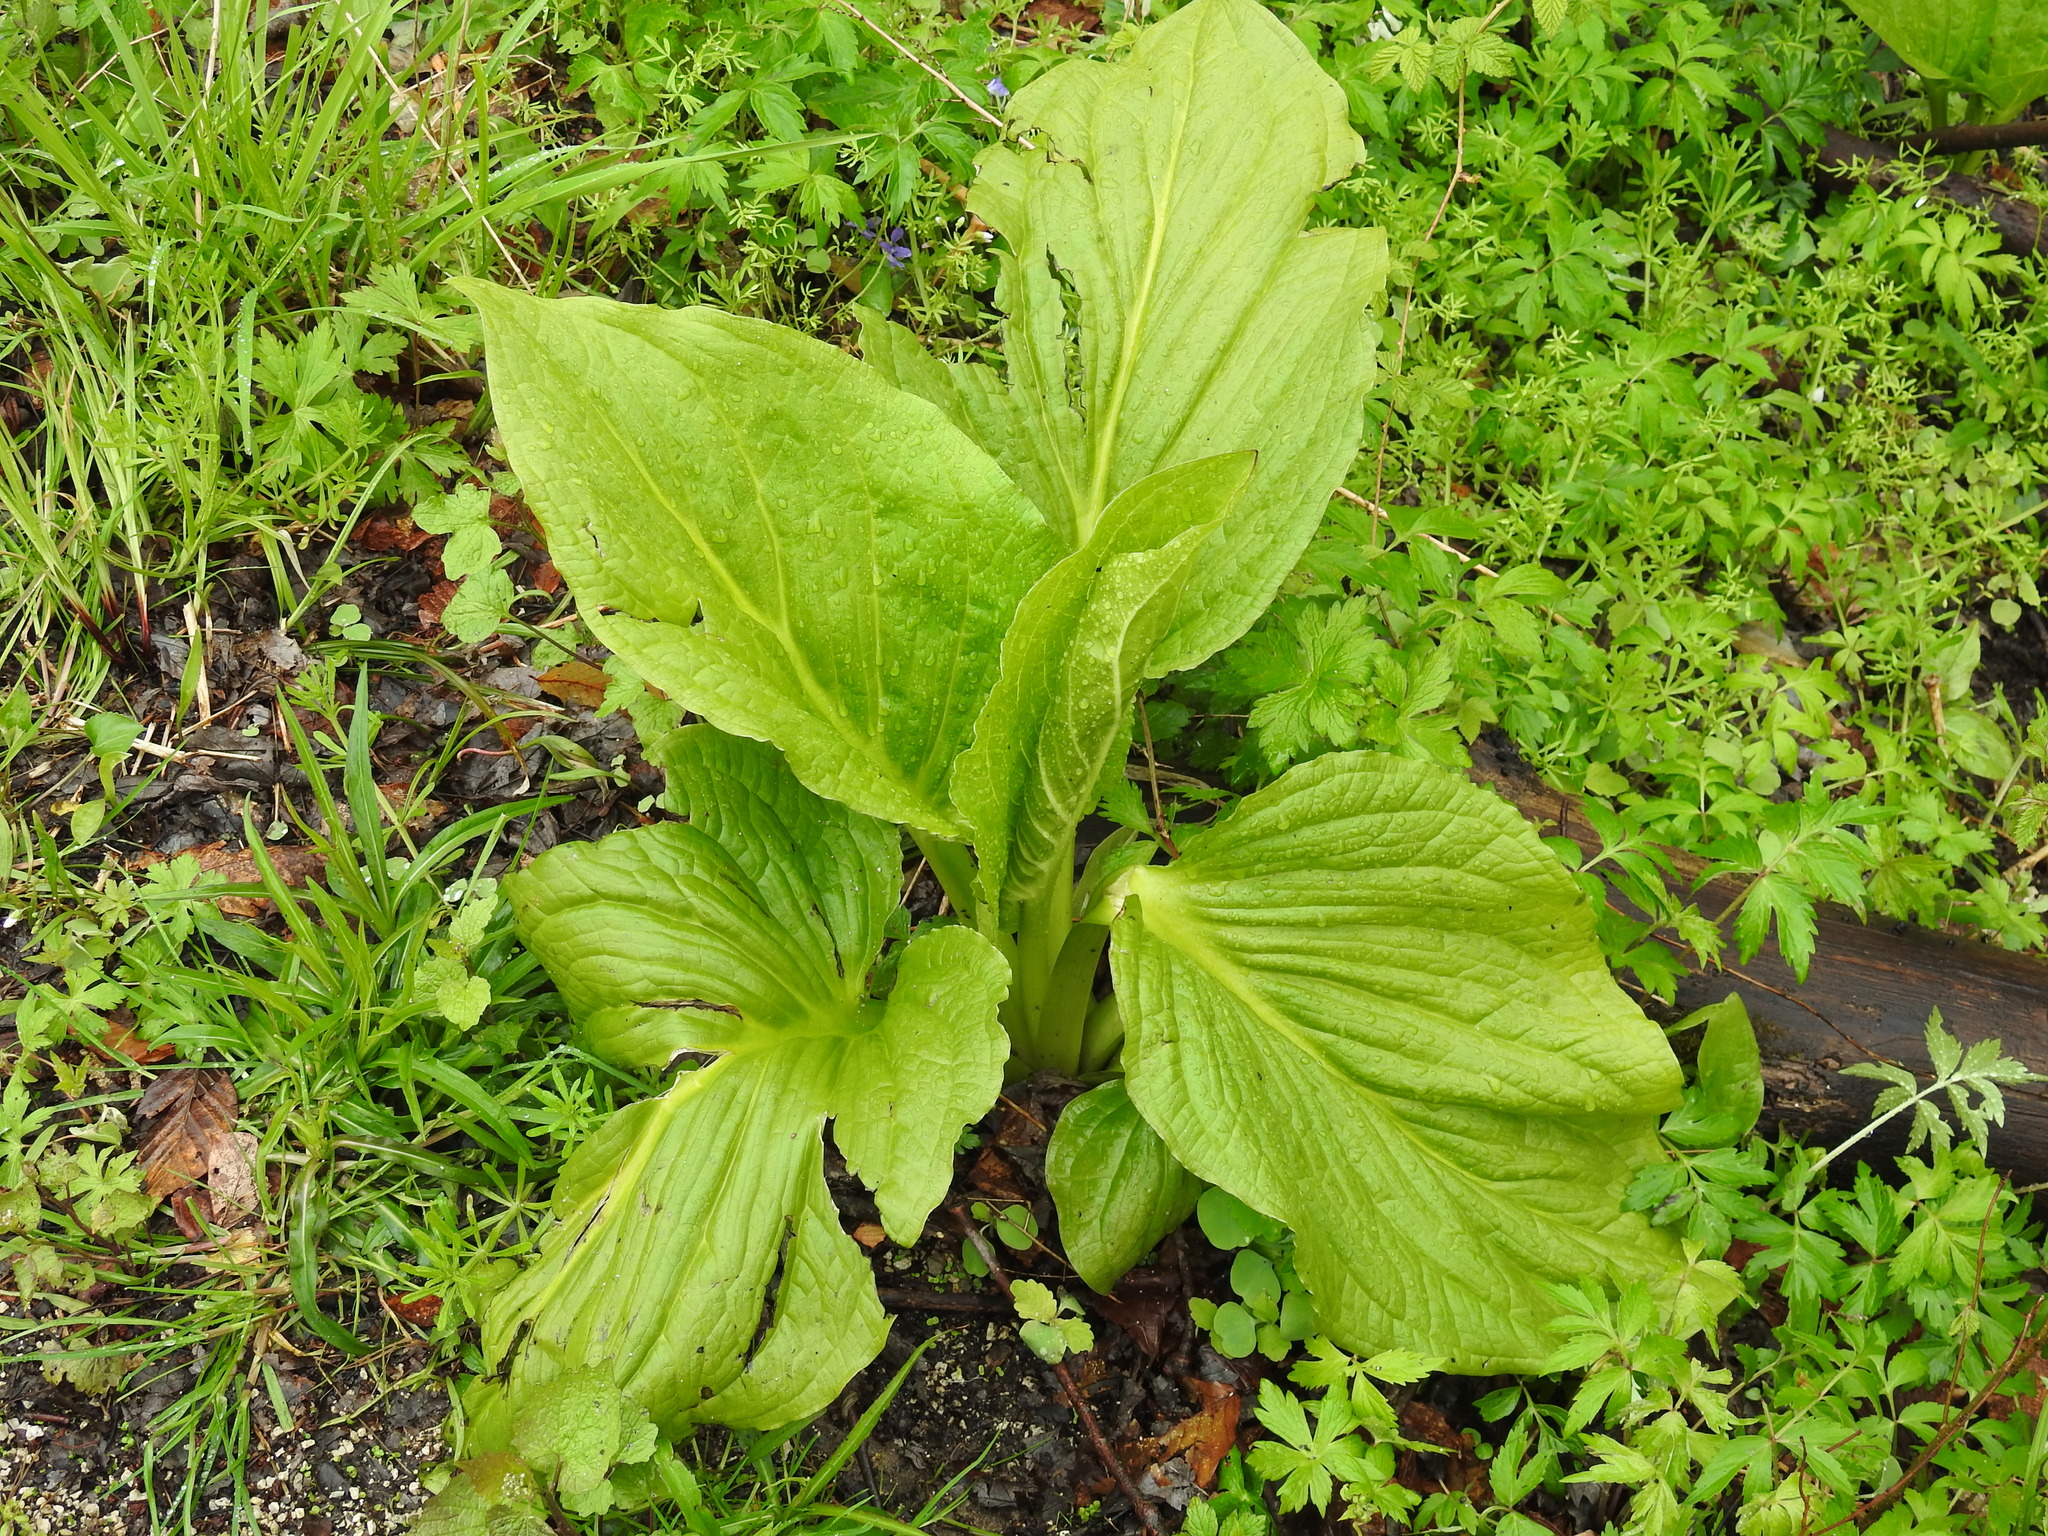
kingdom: Plantae
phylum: Tracheophyta
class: Liliopsida
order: Alismatales
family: Araceae
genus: Symplocarpus
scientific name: Symplocarpus foetidus
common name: Eastern skunk cabbage
